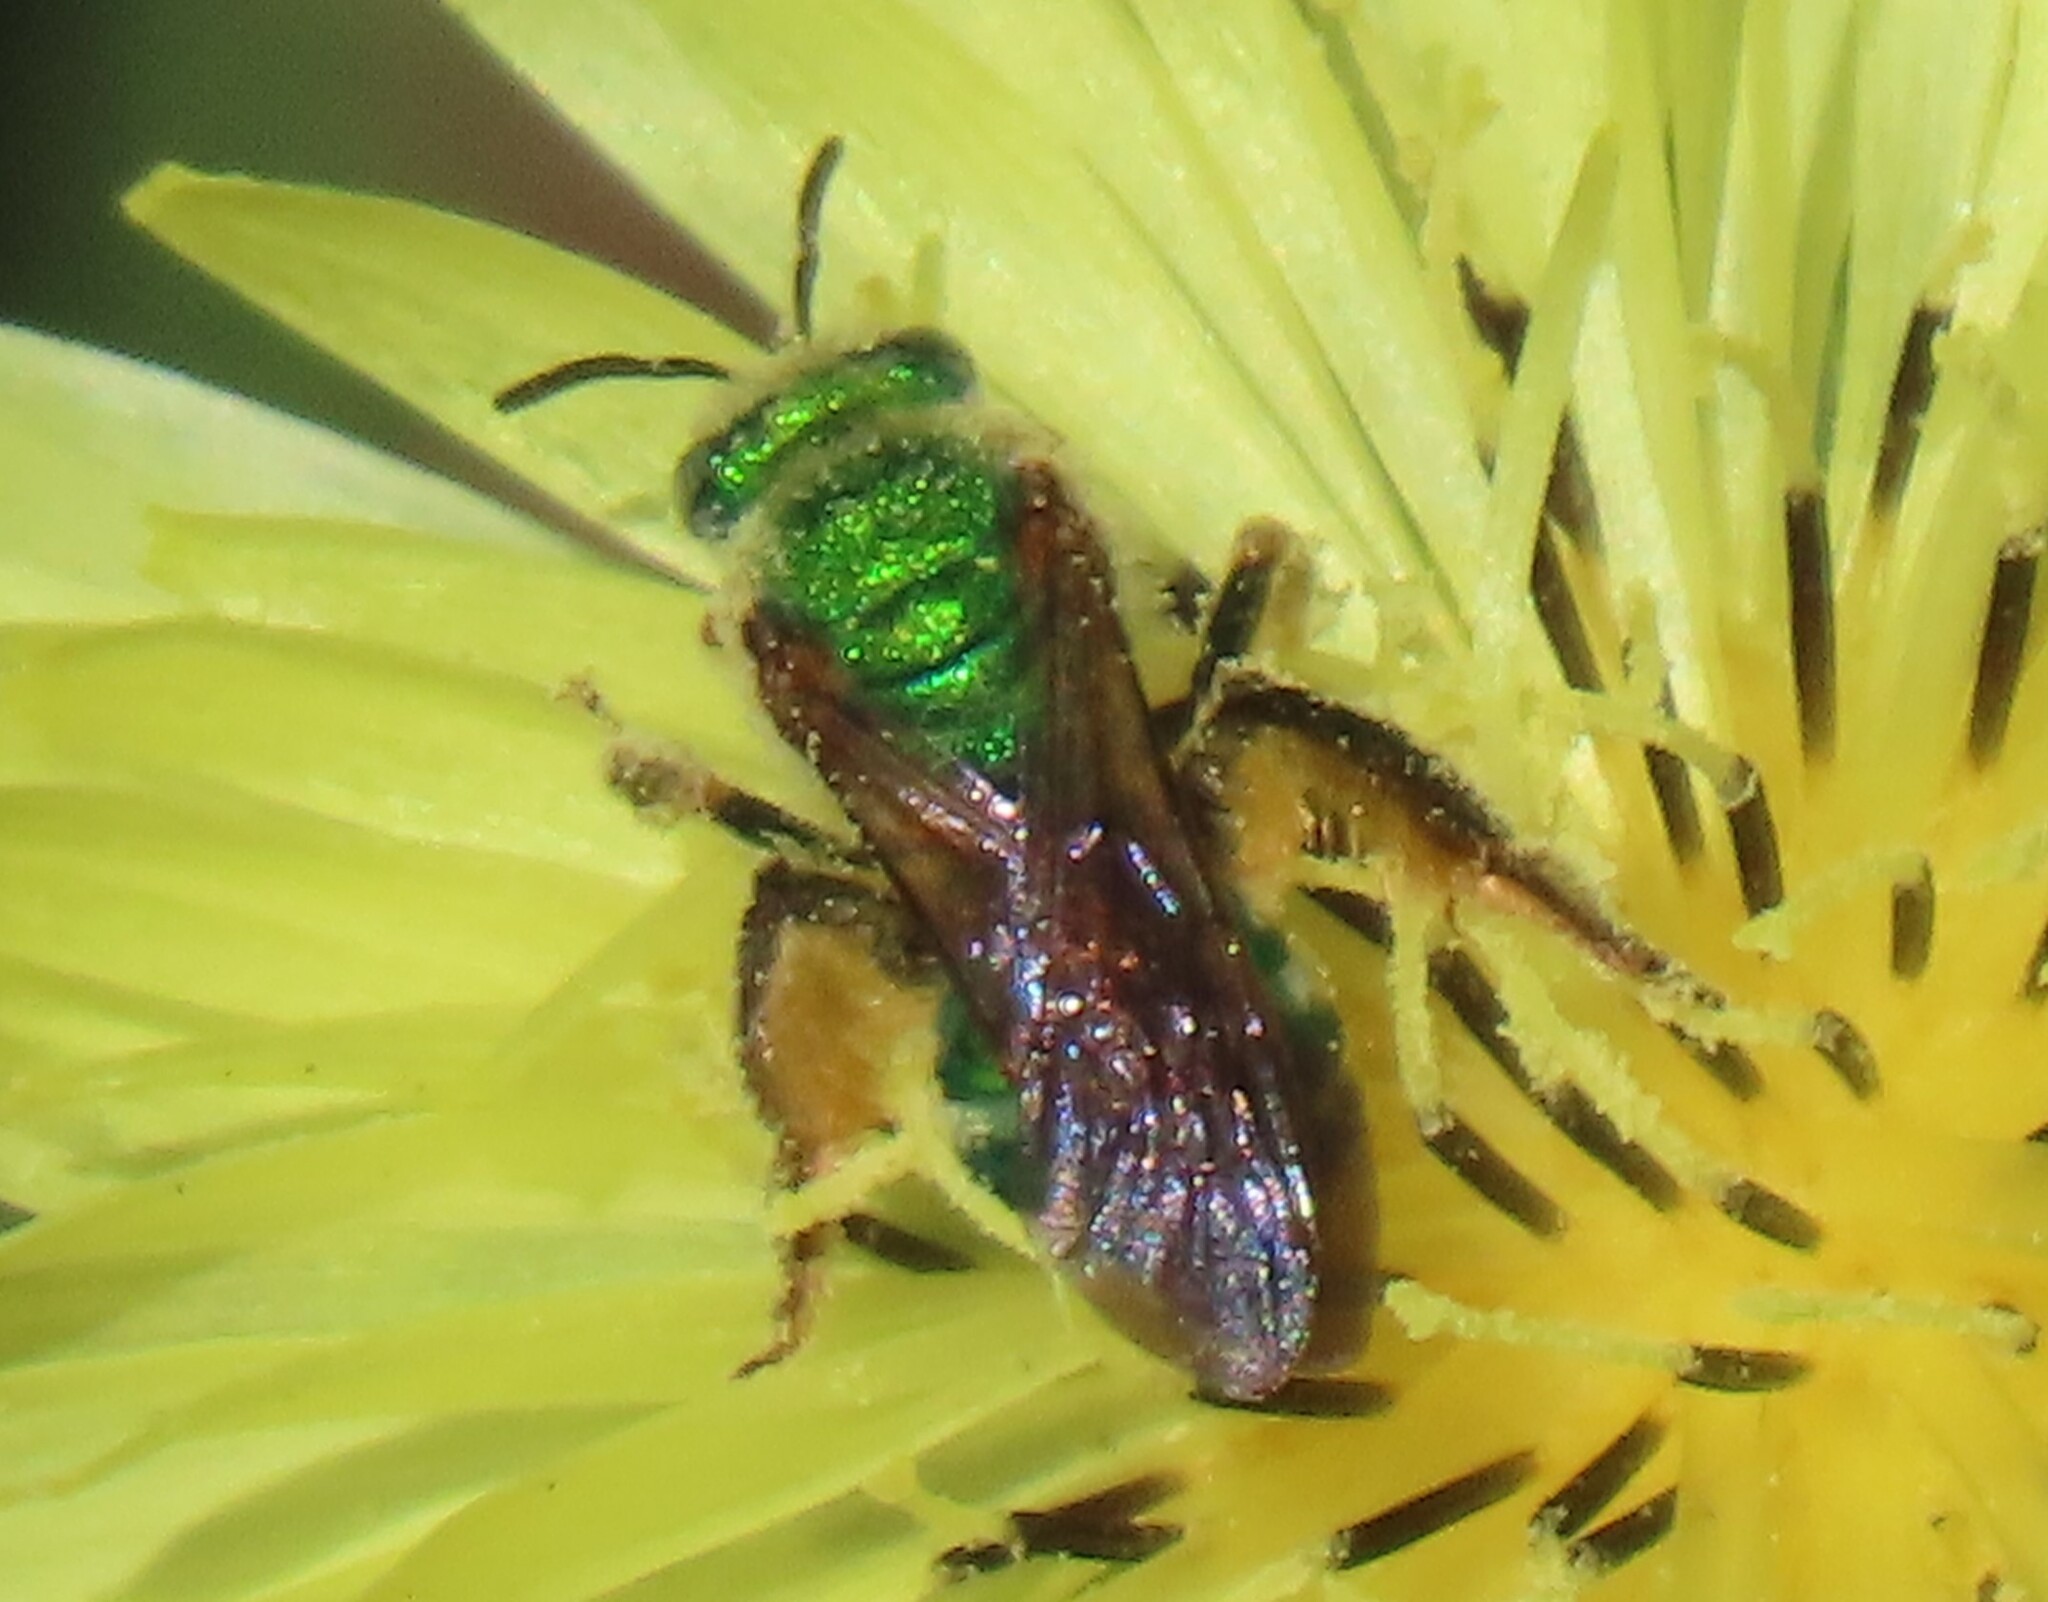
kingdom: Animalia
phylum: Arthropoda
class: Insecta
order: Hymenoptera
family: Halictidae
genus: Agapostemon
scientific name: Agapostemon splendens
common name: Brown-winged striped sweat bee
